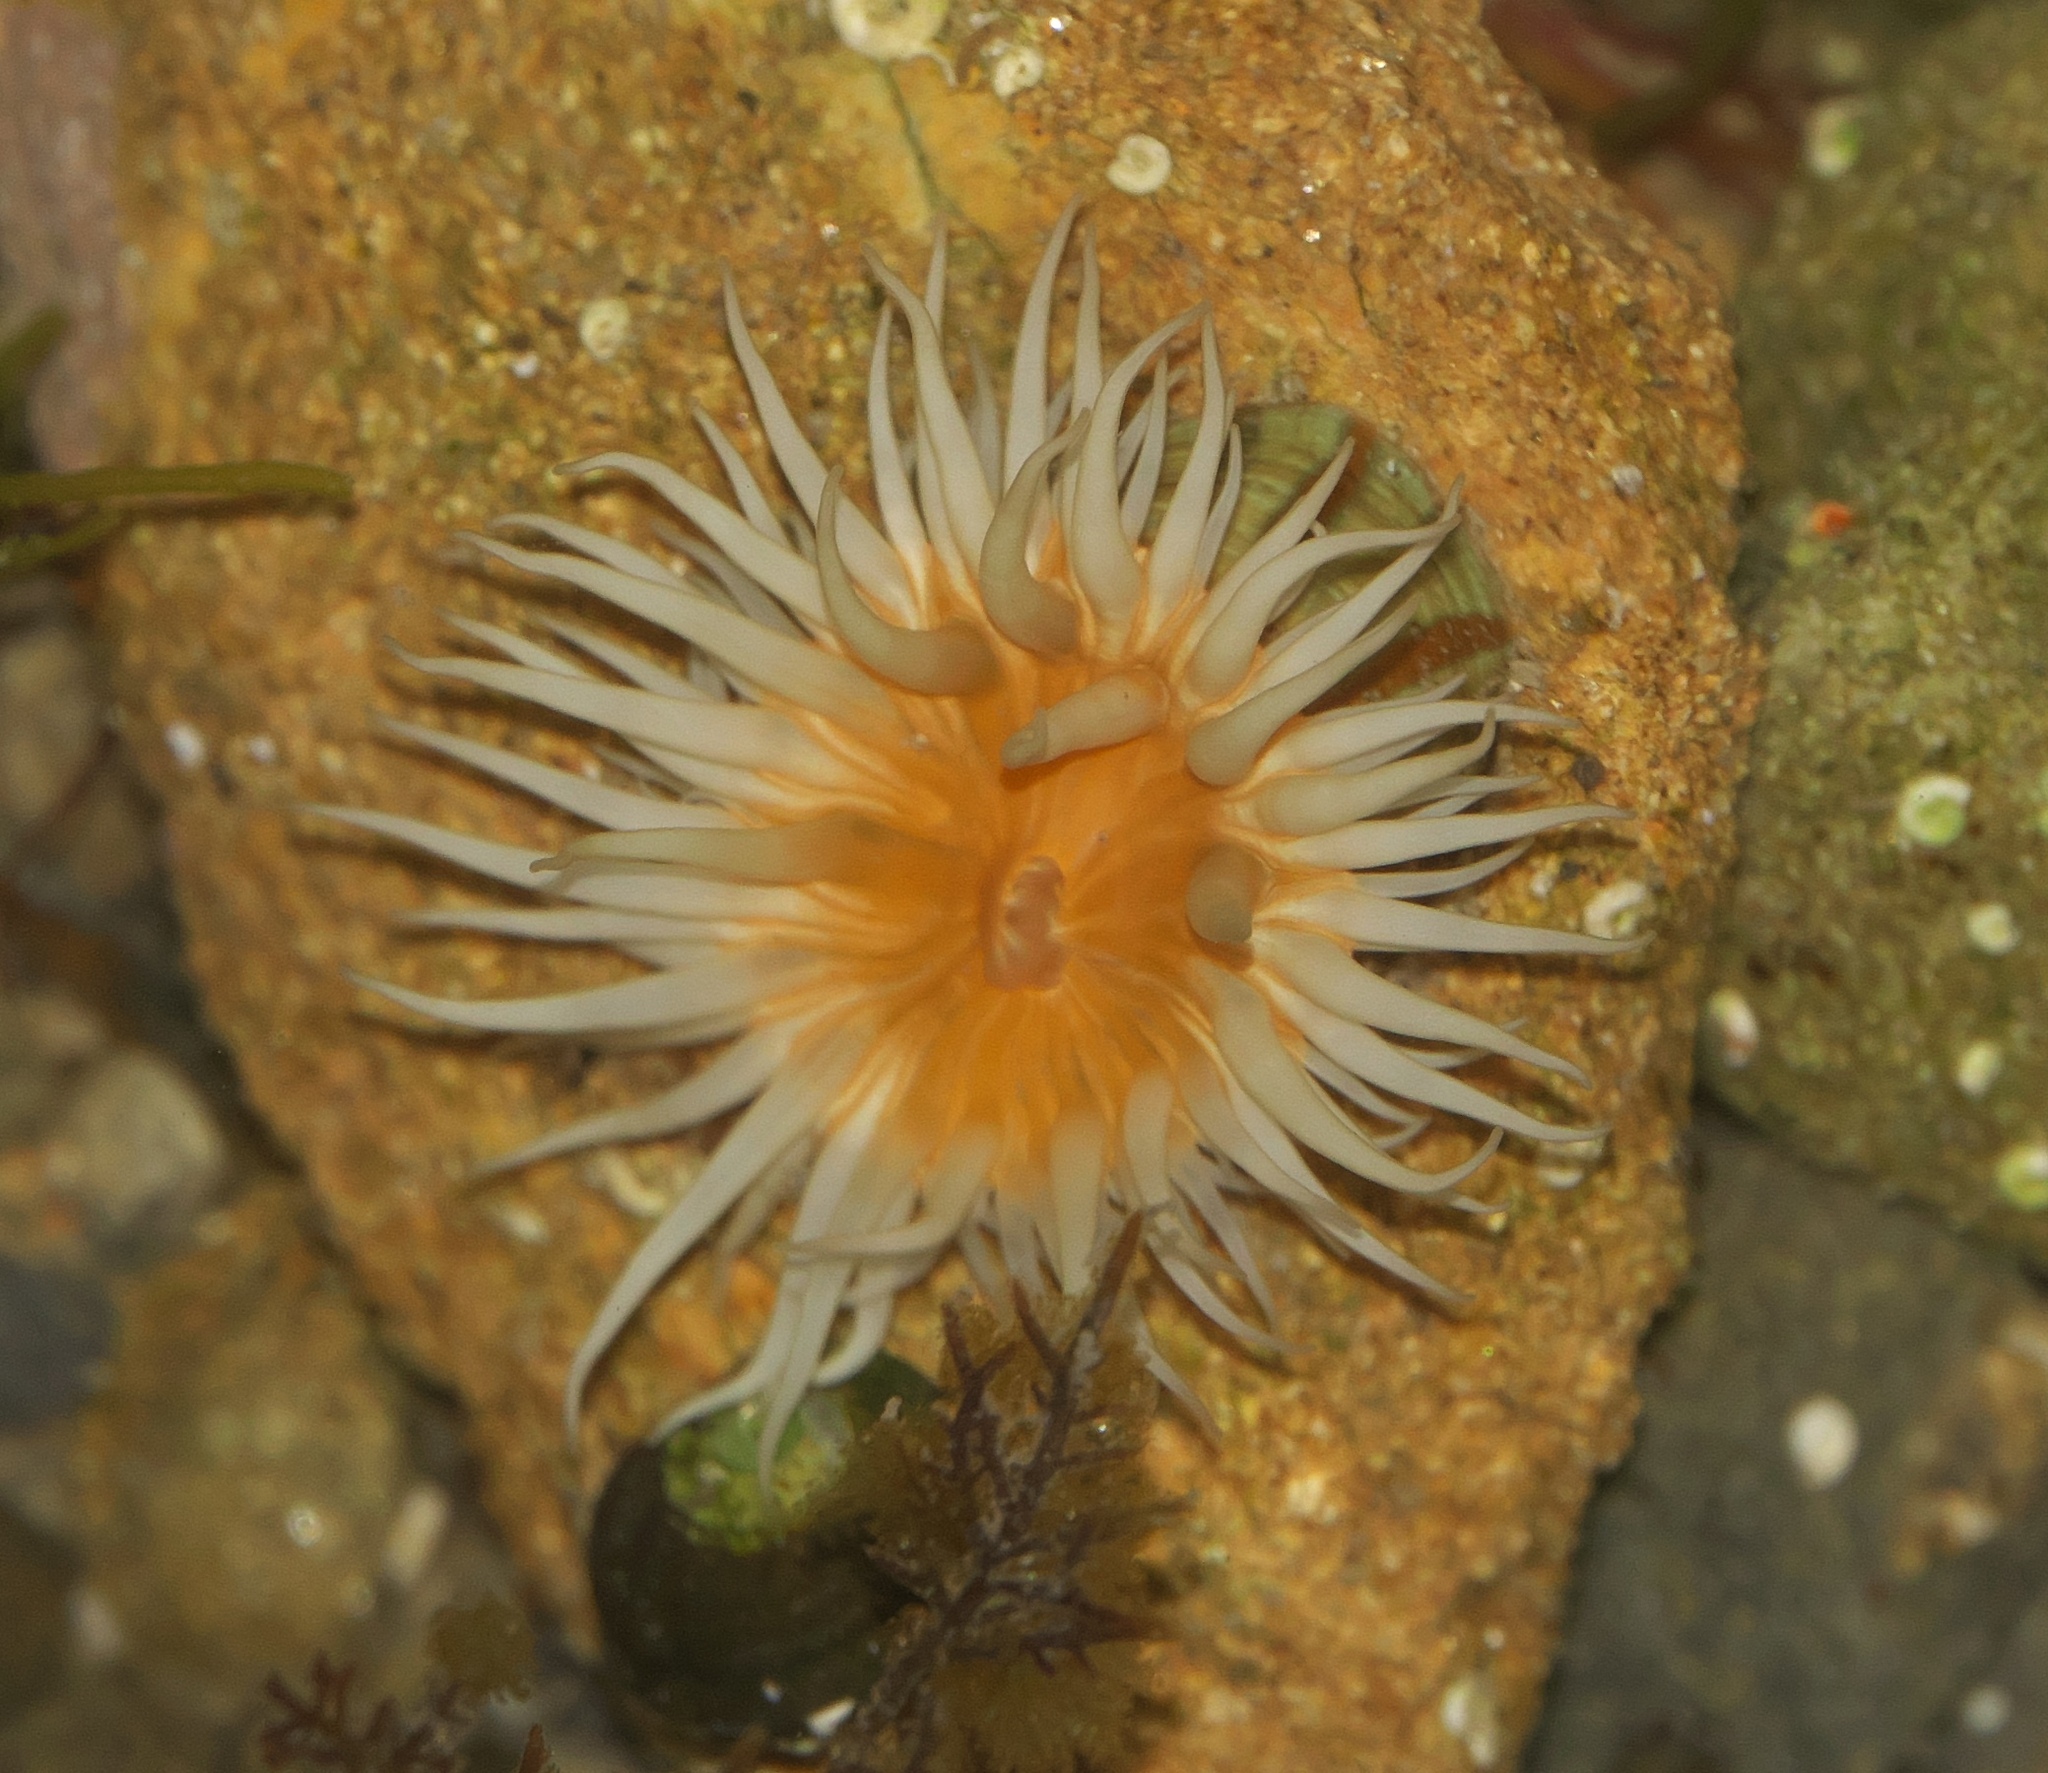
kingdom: Animalia
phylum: Cnidaria
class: Anthozoa
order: Actiniaria
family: Sagartiidae
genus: Anthothoe
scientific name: Anthothoe albocincta
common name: Orange striped anemone
